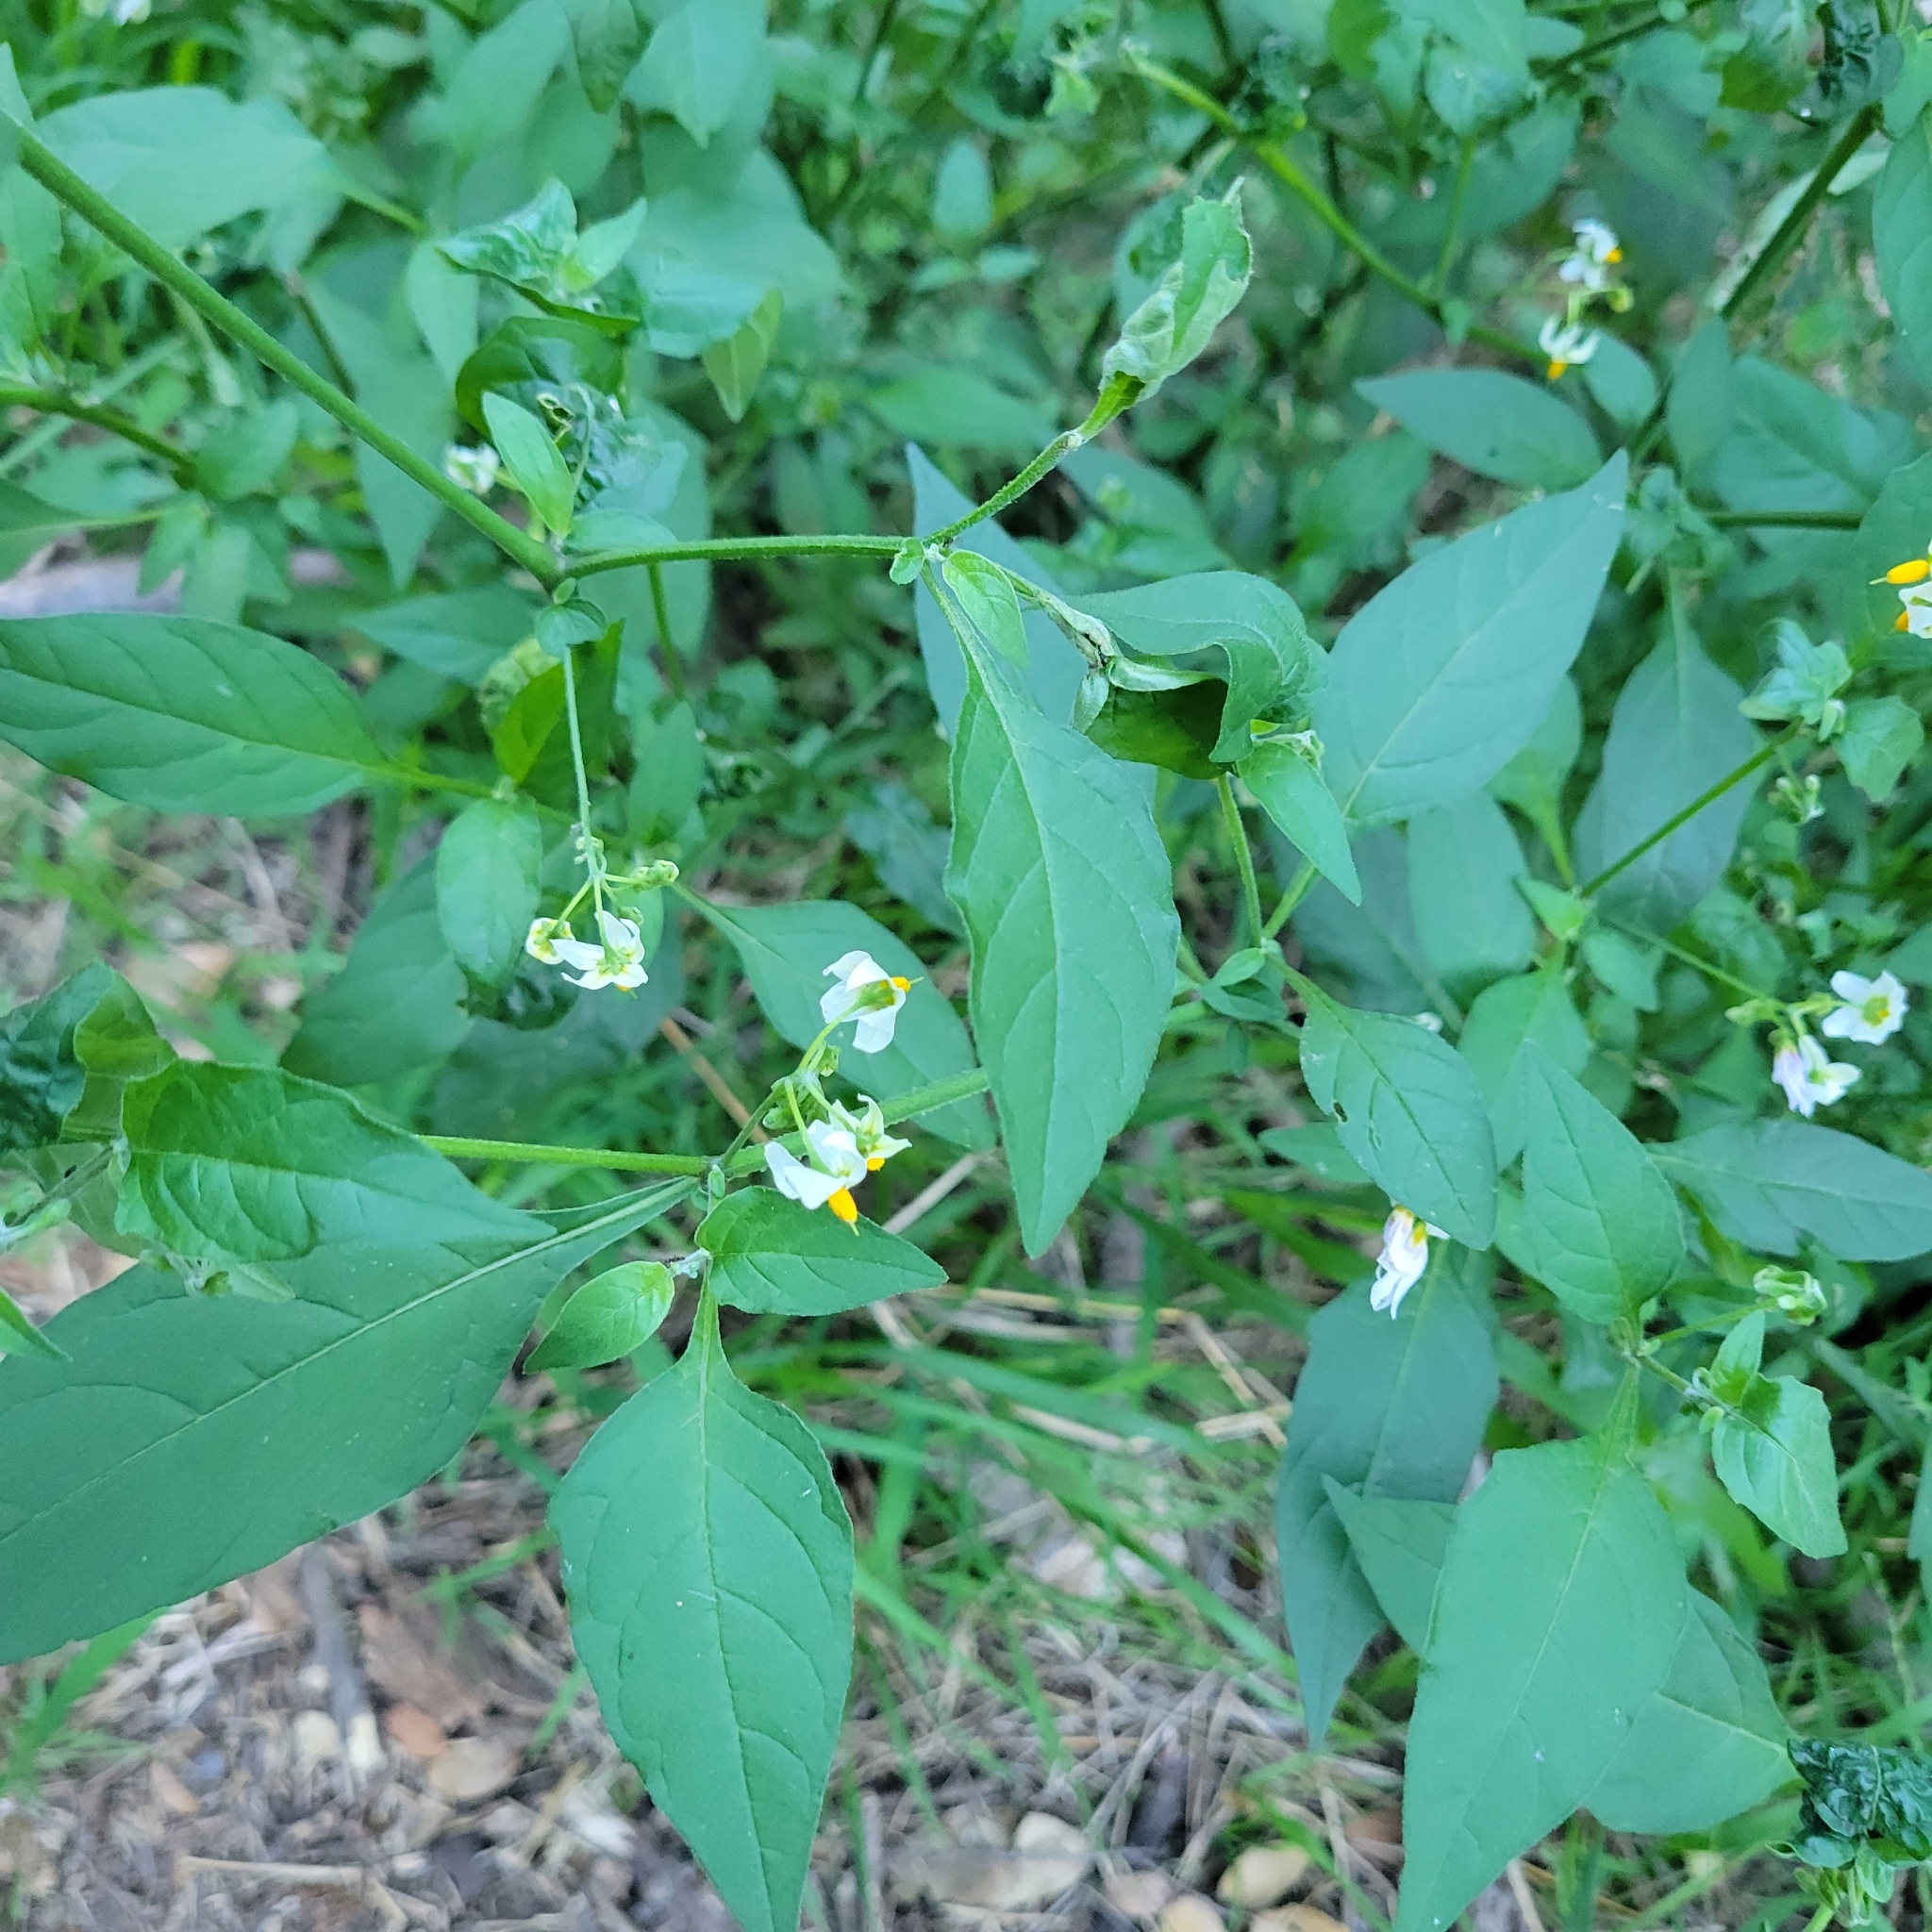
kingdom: Plantae
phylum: Tracheophyta
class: Magnoliopsida
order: Solanales
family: Solanaceae
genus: Solanum
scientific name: Solanum douglasii
